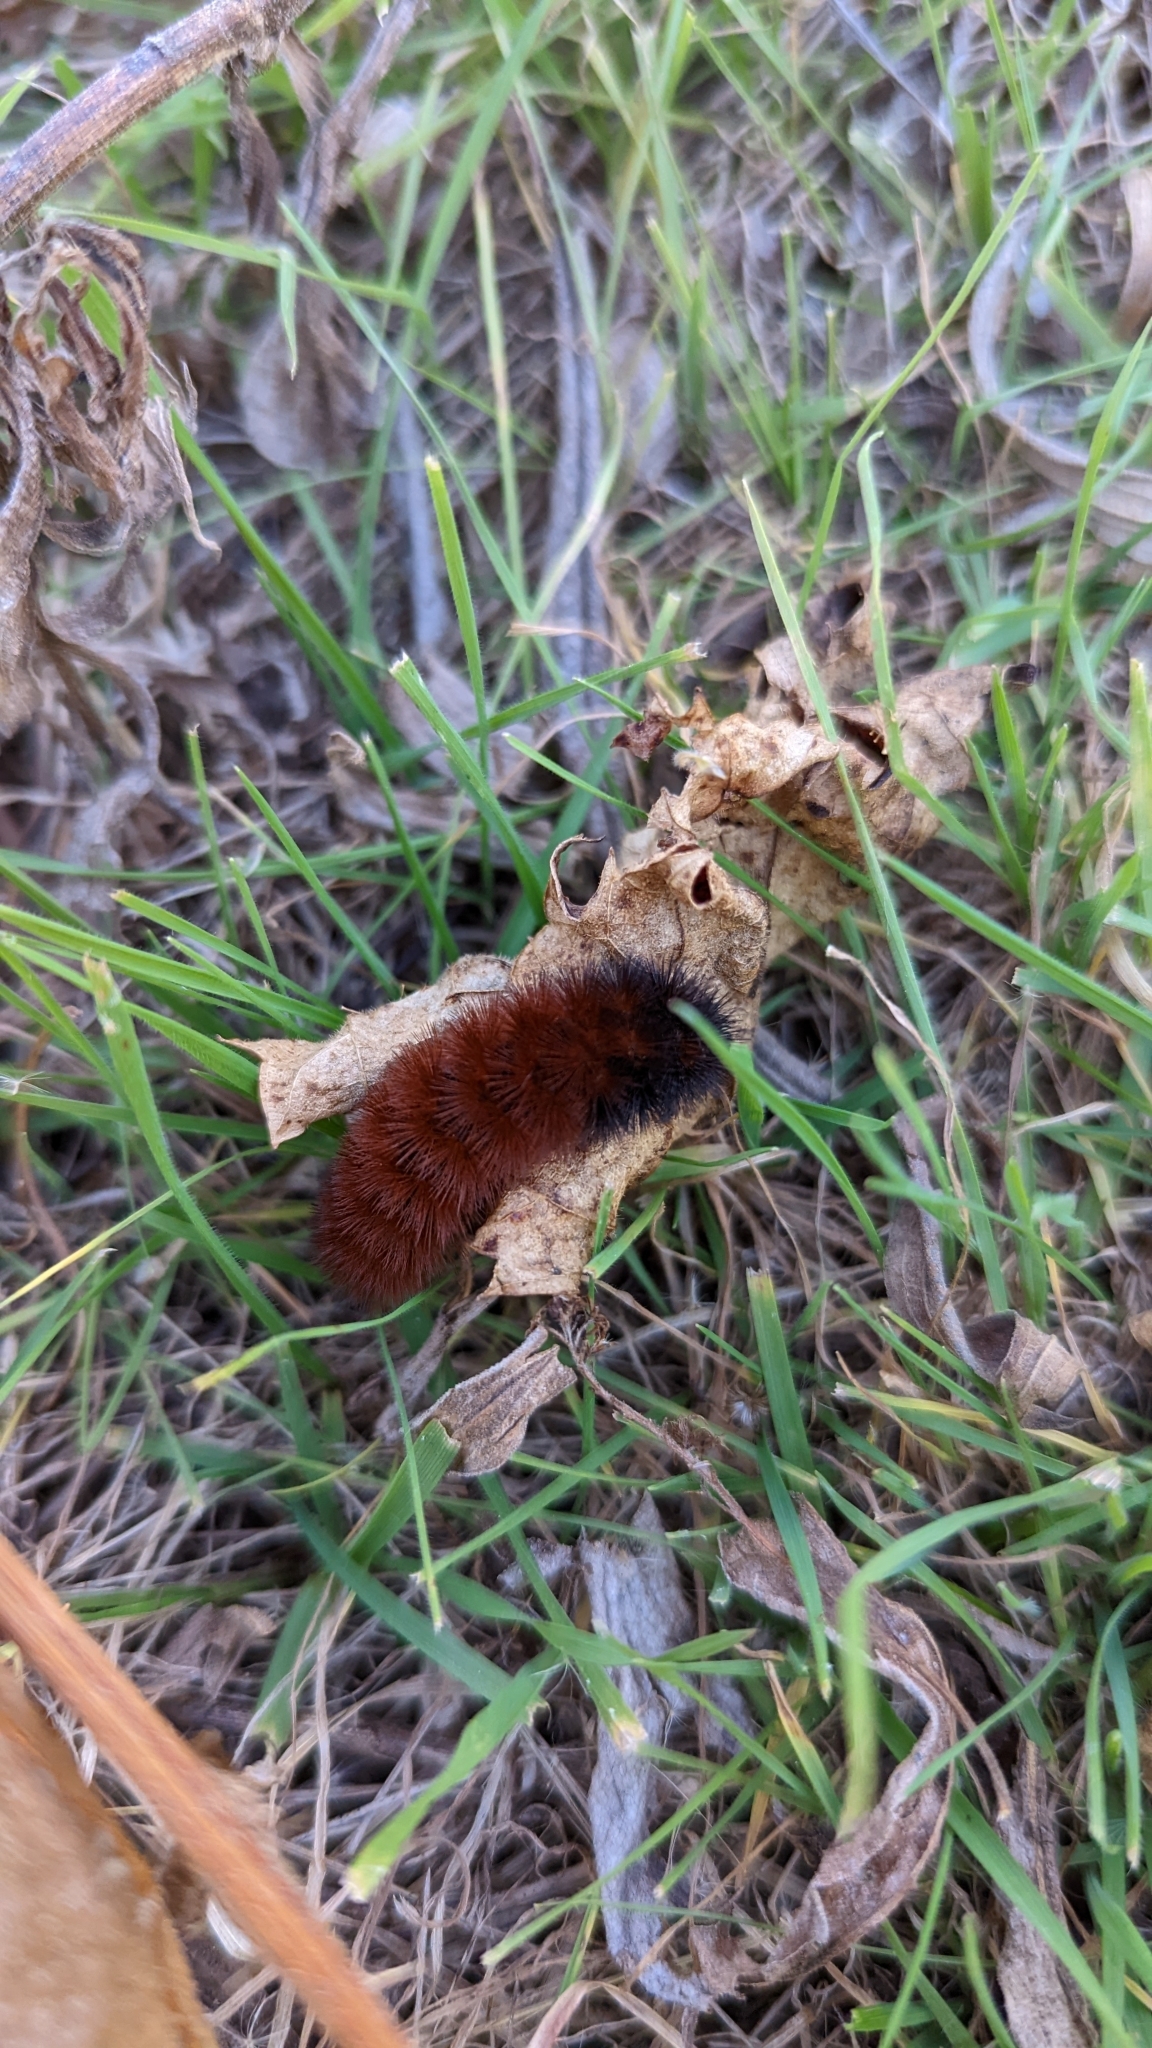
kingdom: Animalia
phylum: Arthropoda
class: Insecta
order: Lepidoptera
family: Erebidae
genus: Pyrrharctia
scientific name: Pyrrharctia isabella
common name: Isabella tiger moth
